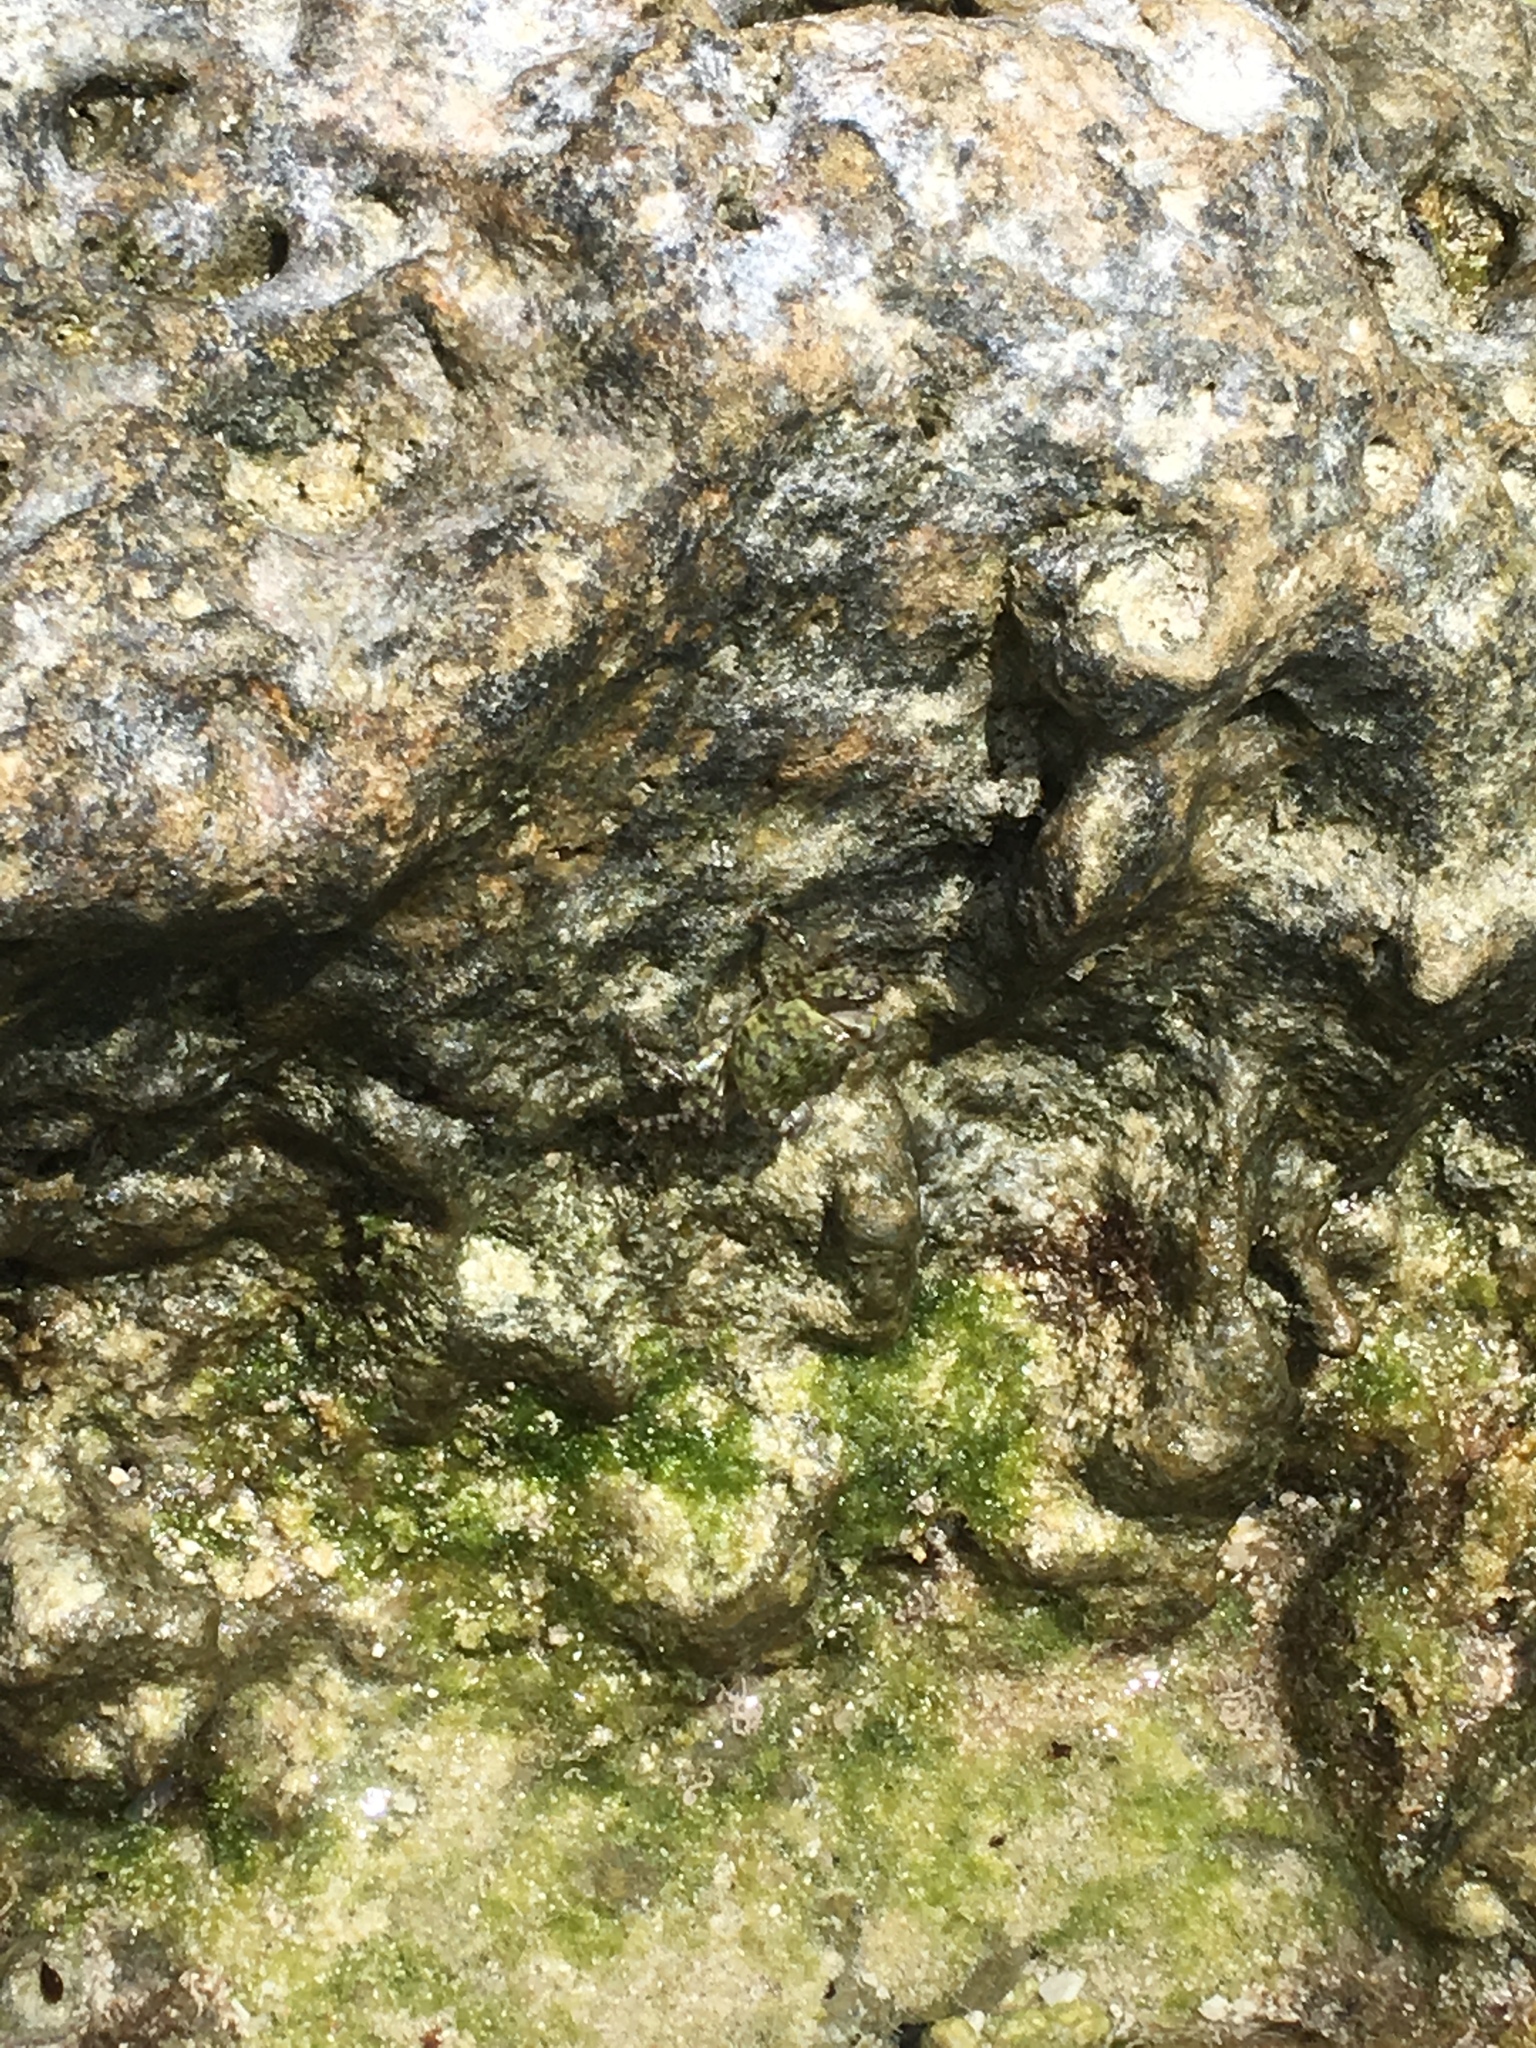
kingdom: Animalia
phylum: Arthropoda
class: Malacostraca
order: Decapoda
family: Grapsidae
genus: Pachygrapsus
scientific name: Pachygrapsus transversus
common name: Mottled shore crab
